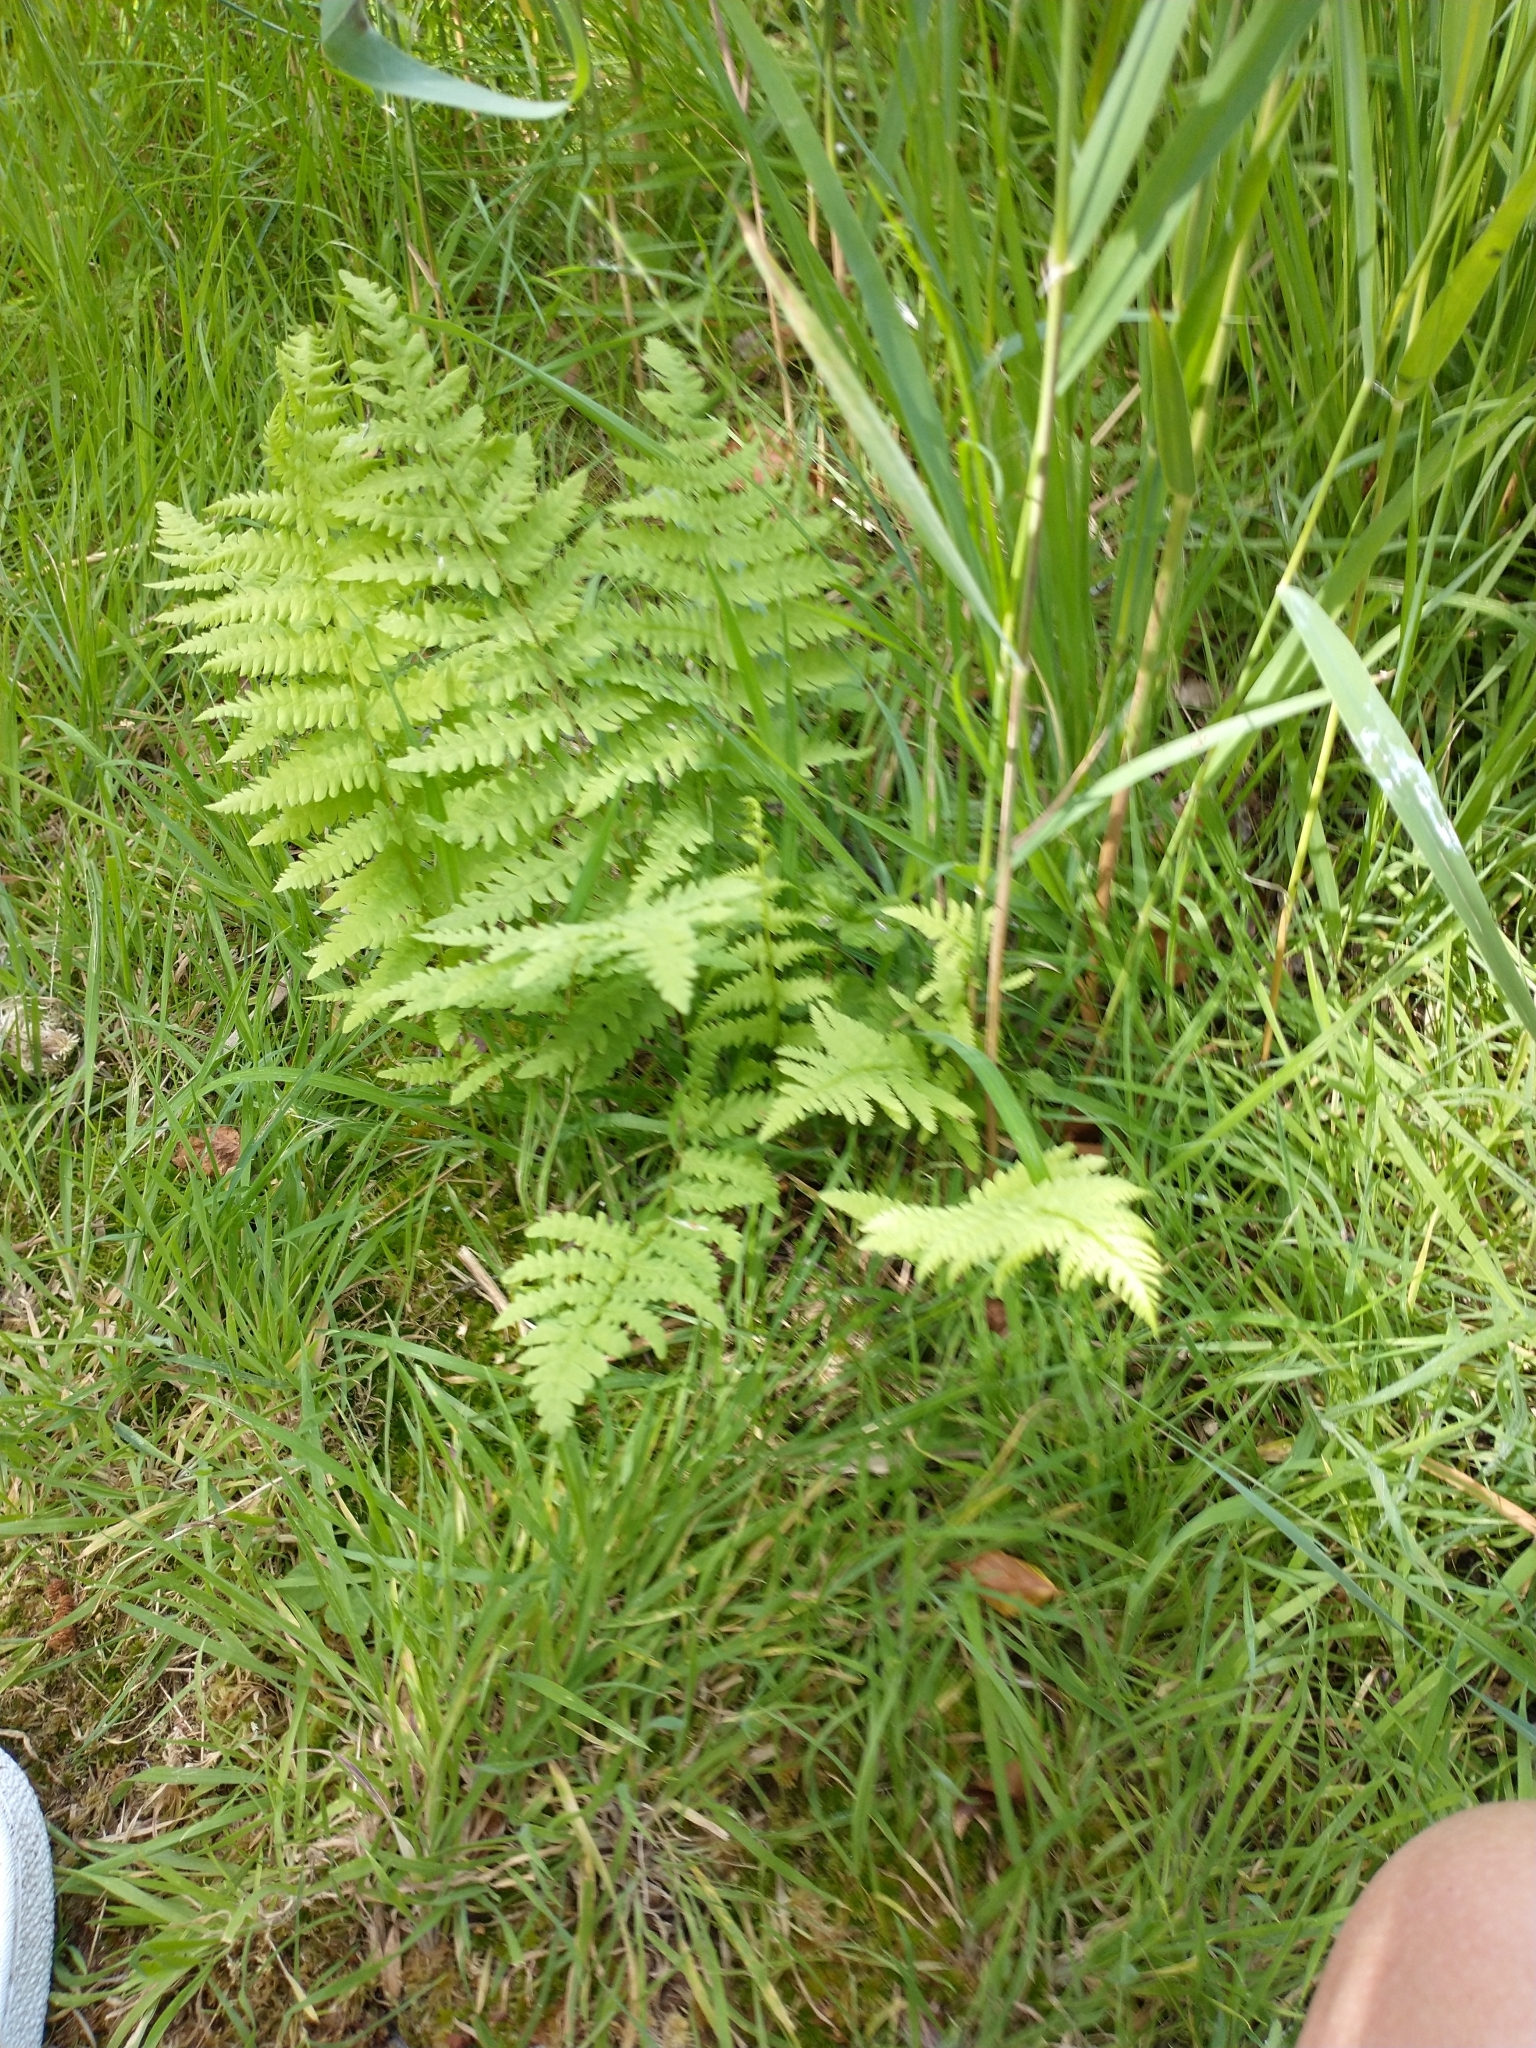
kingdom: Plantae
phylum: Tracheophyta
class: Polypodiopsida
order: Polypodiales
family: Thelypteridaceae
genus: Thelypteris
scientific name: Thelypteris palustris
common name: Marsh fern
